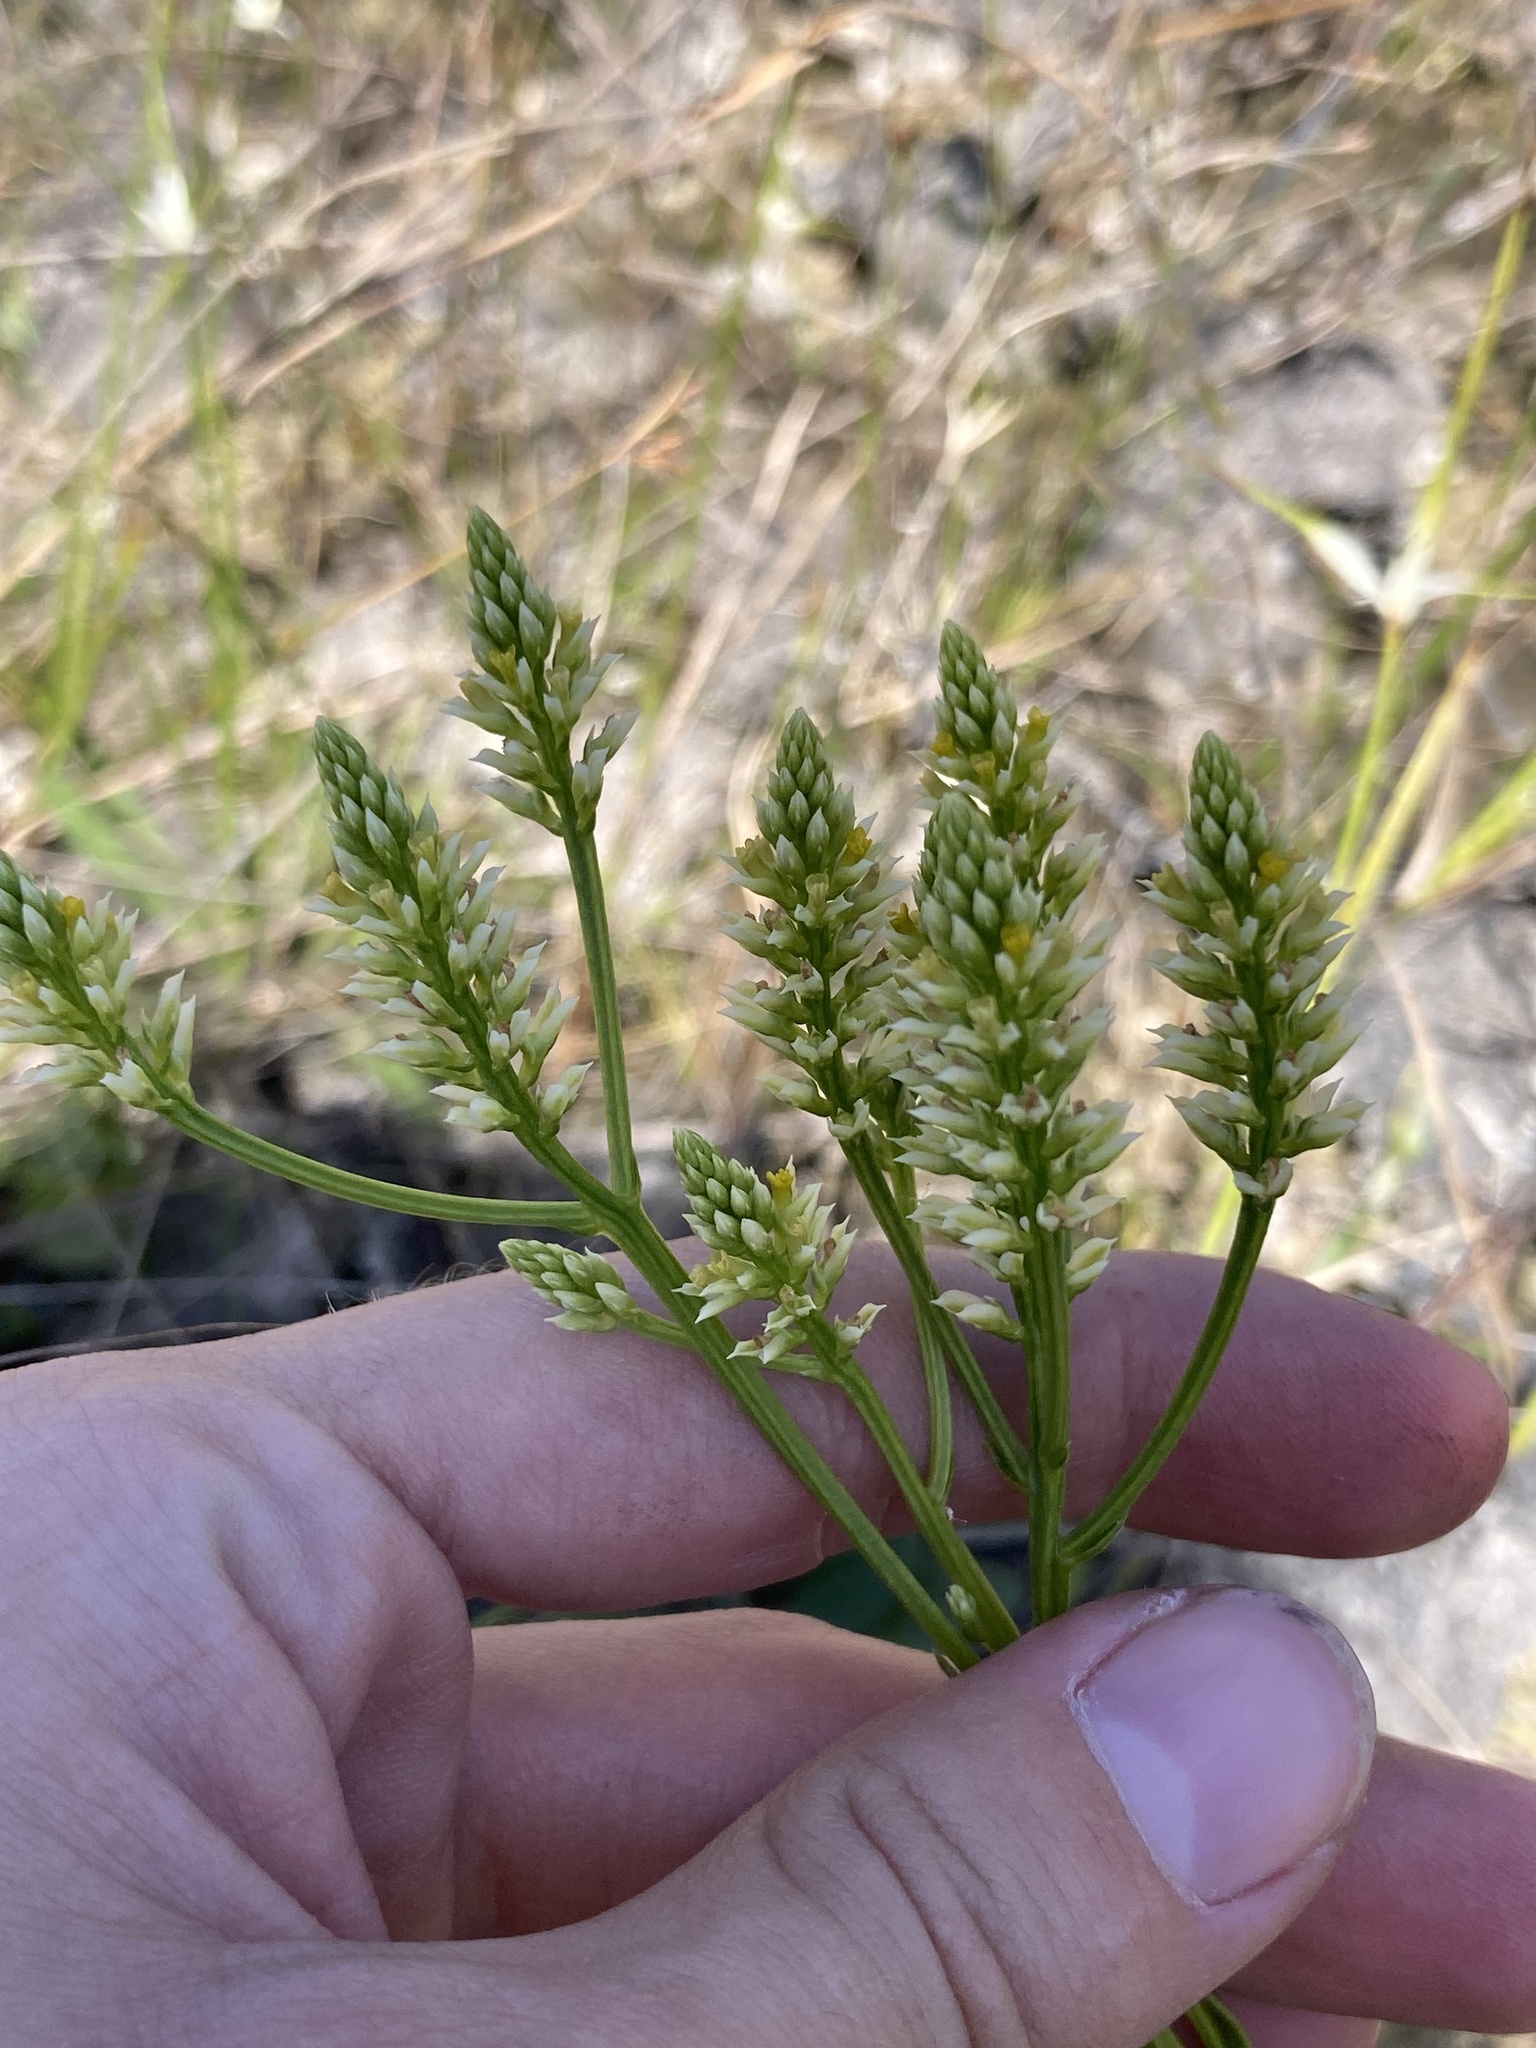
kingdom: Plantae
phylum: Tracheophyta
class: Magnoliopsida
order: Fabales
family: Polygalaceae
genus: Polygala
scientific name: Polygala baldwinii
